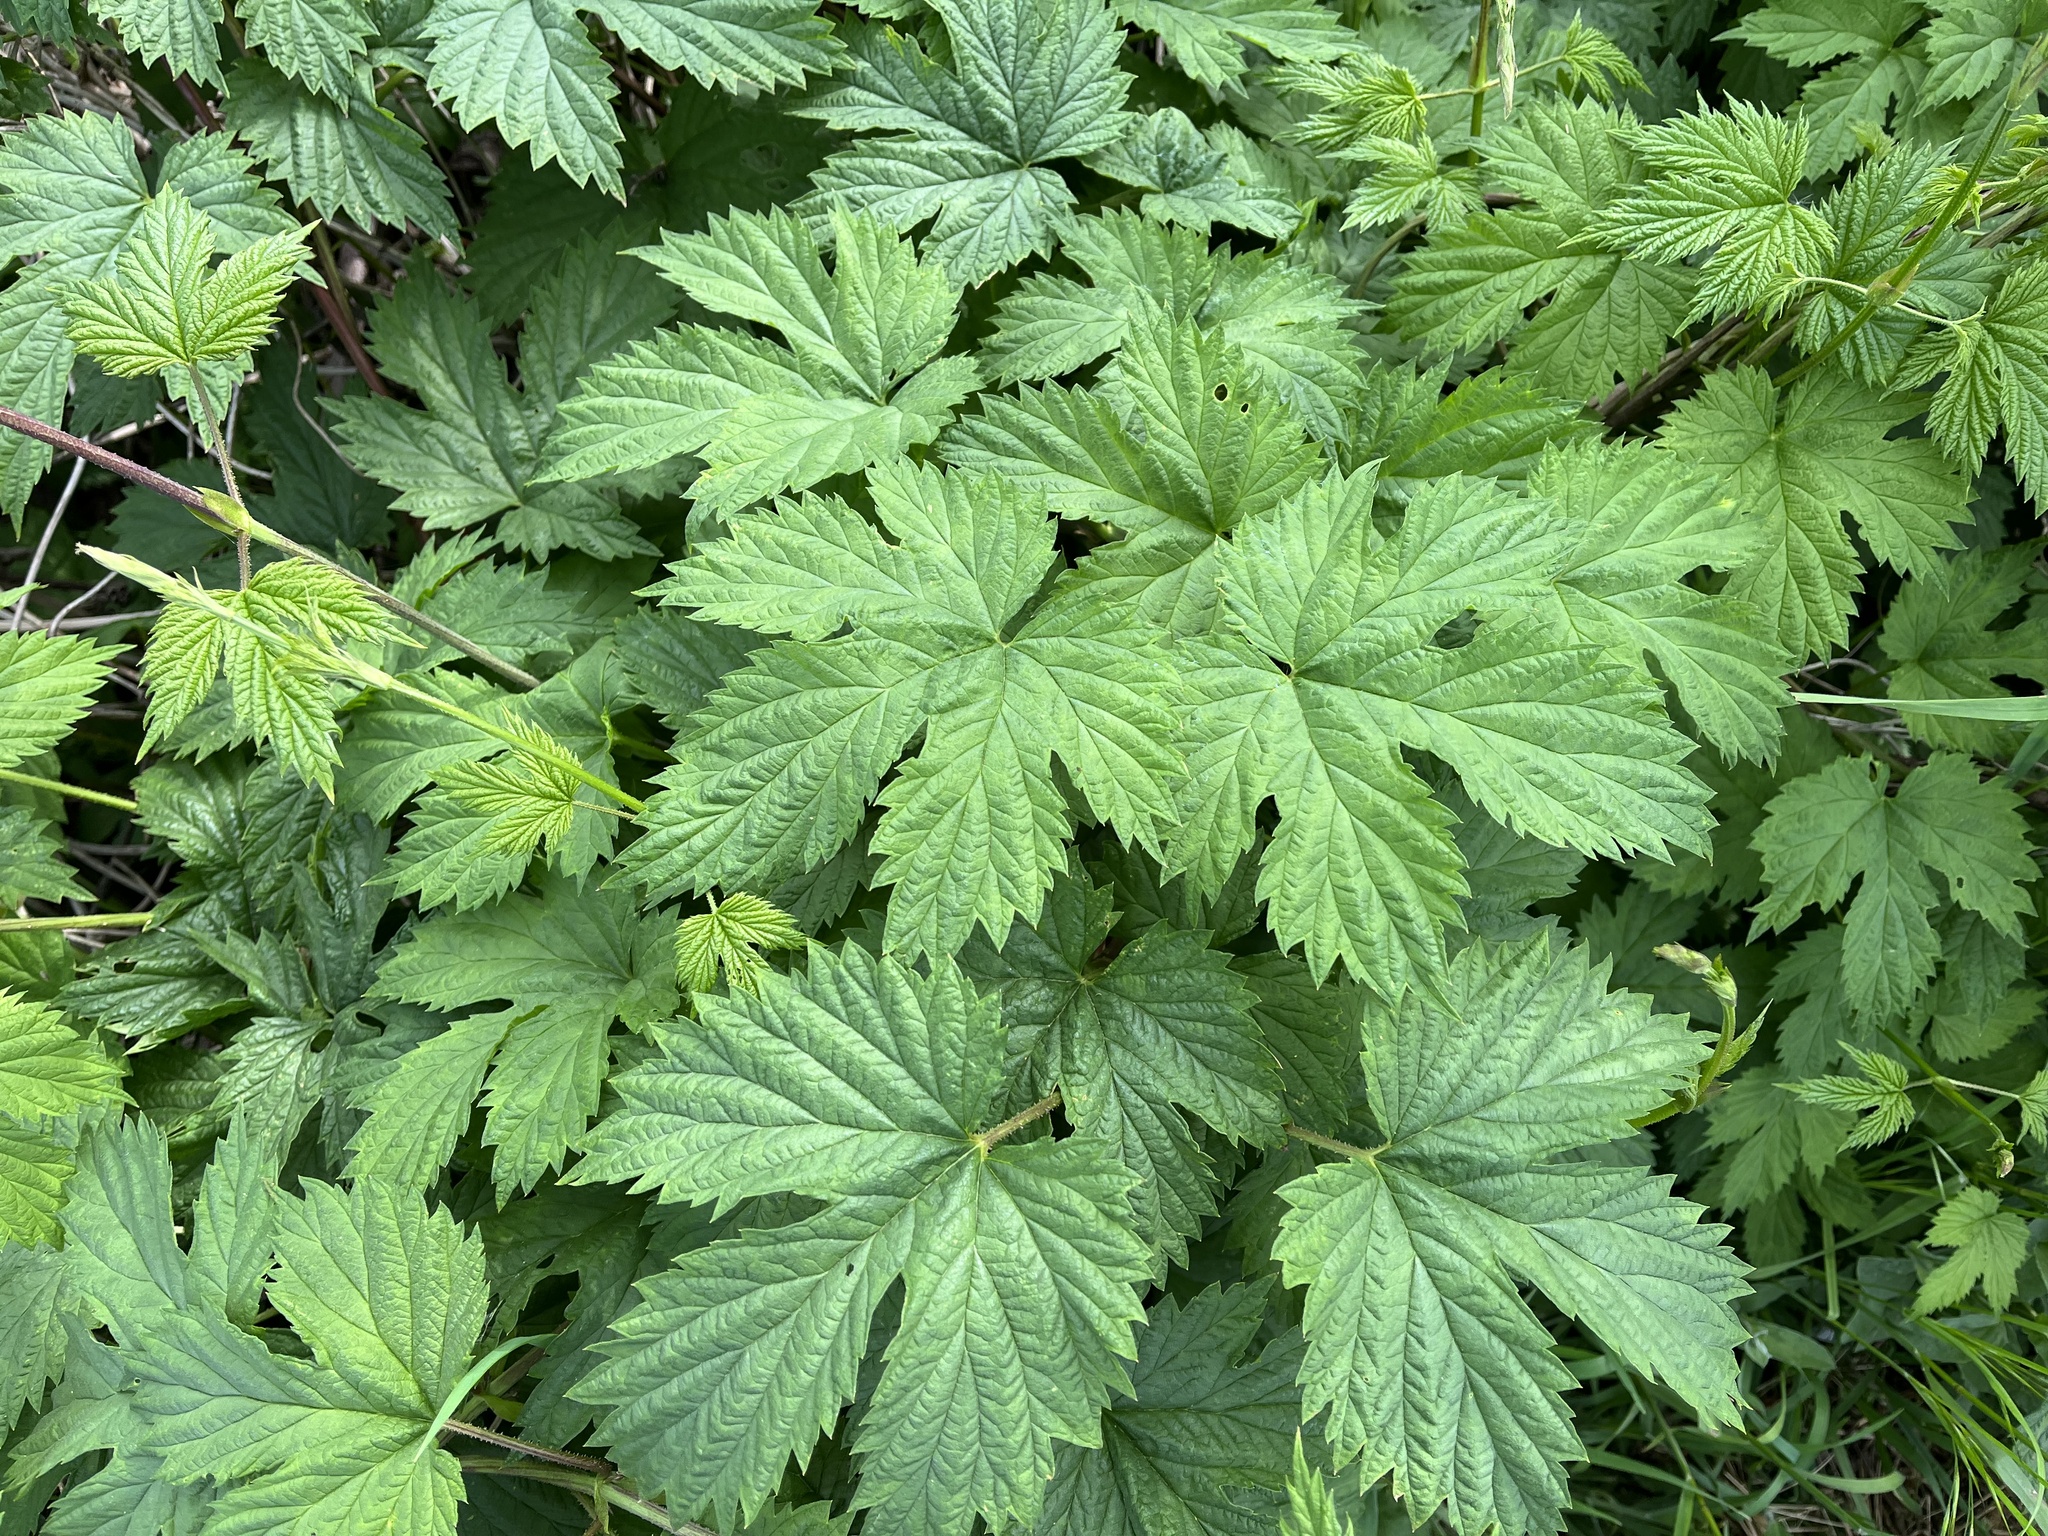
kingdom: Plantae
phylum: Tracheophyta
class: Magnoliopsida
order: Rosales
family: Cannabaceae
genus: Humulus
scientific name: Humulus lupulus
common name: Hop
